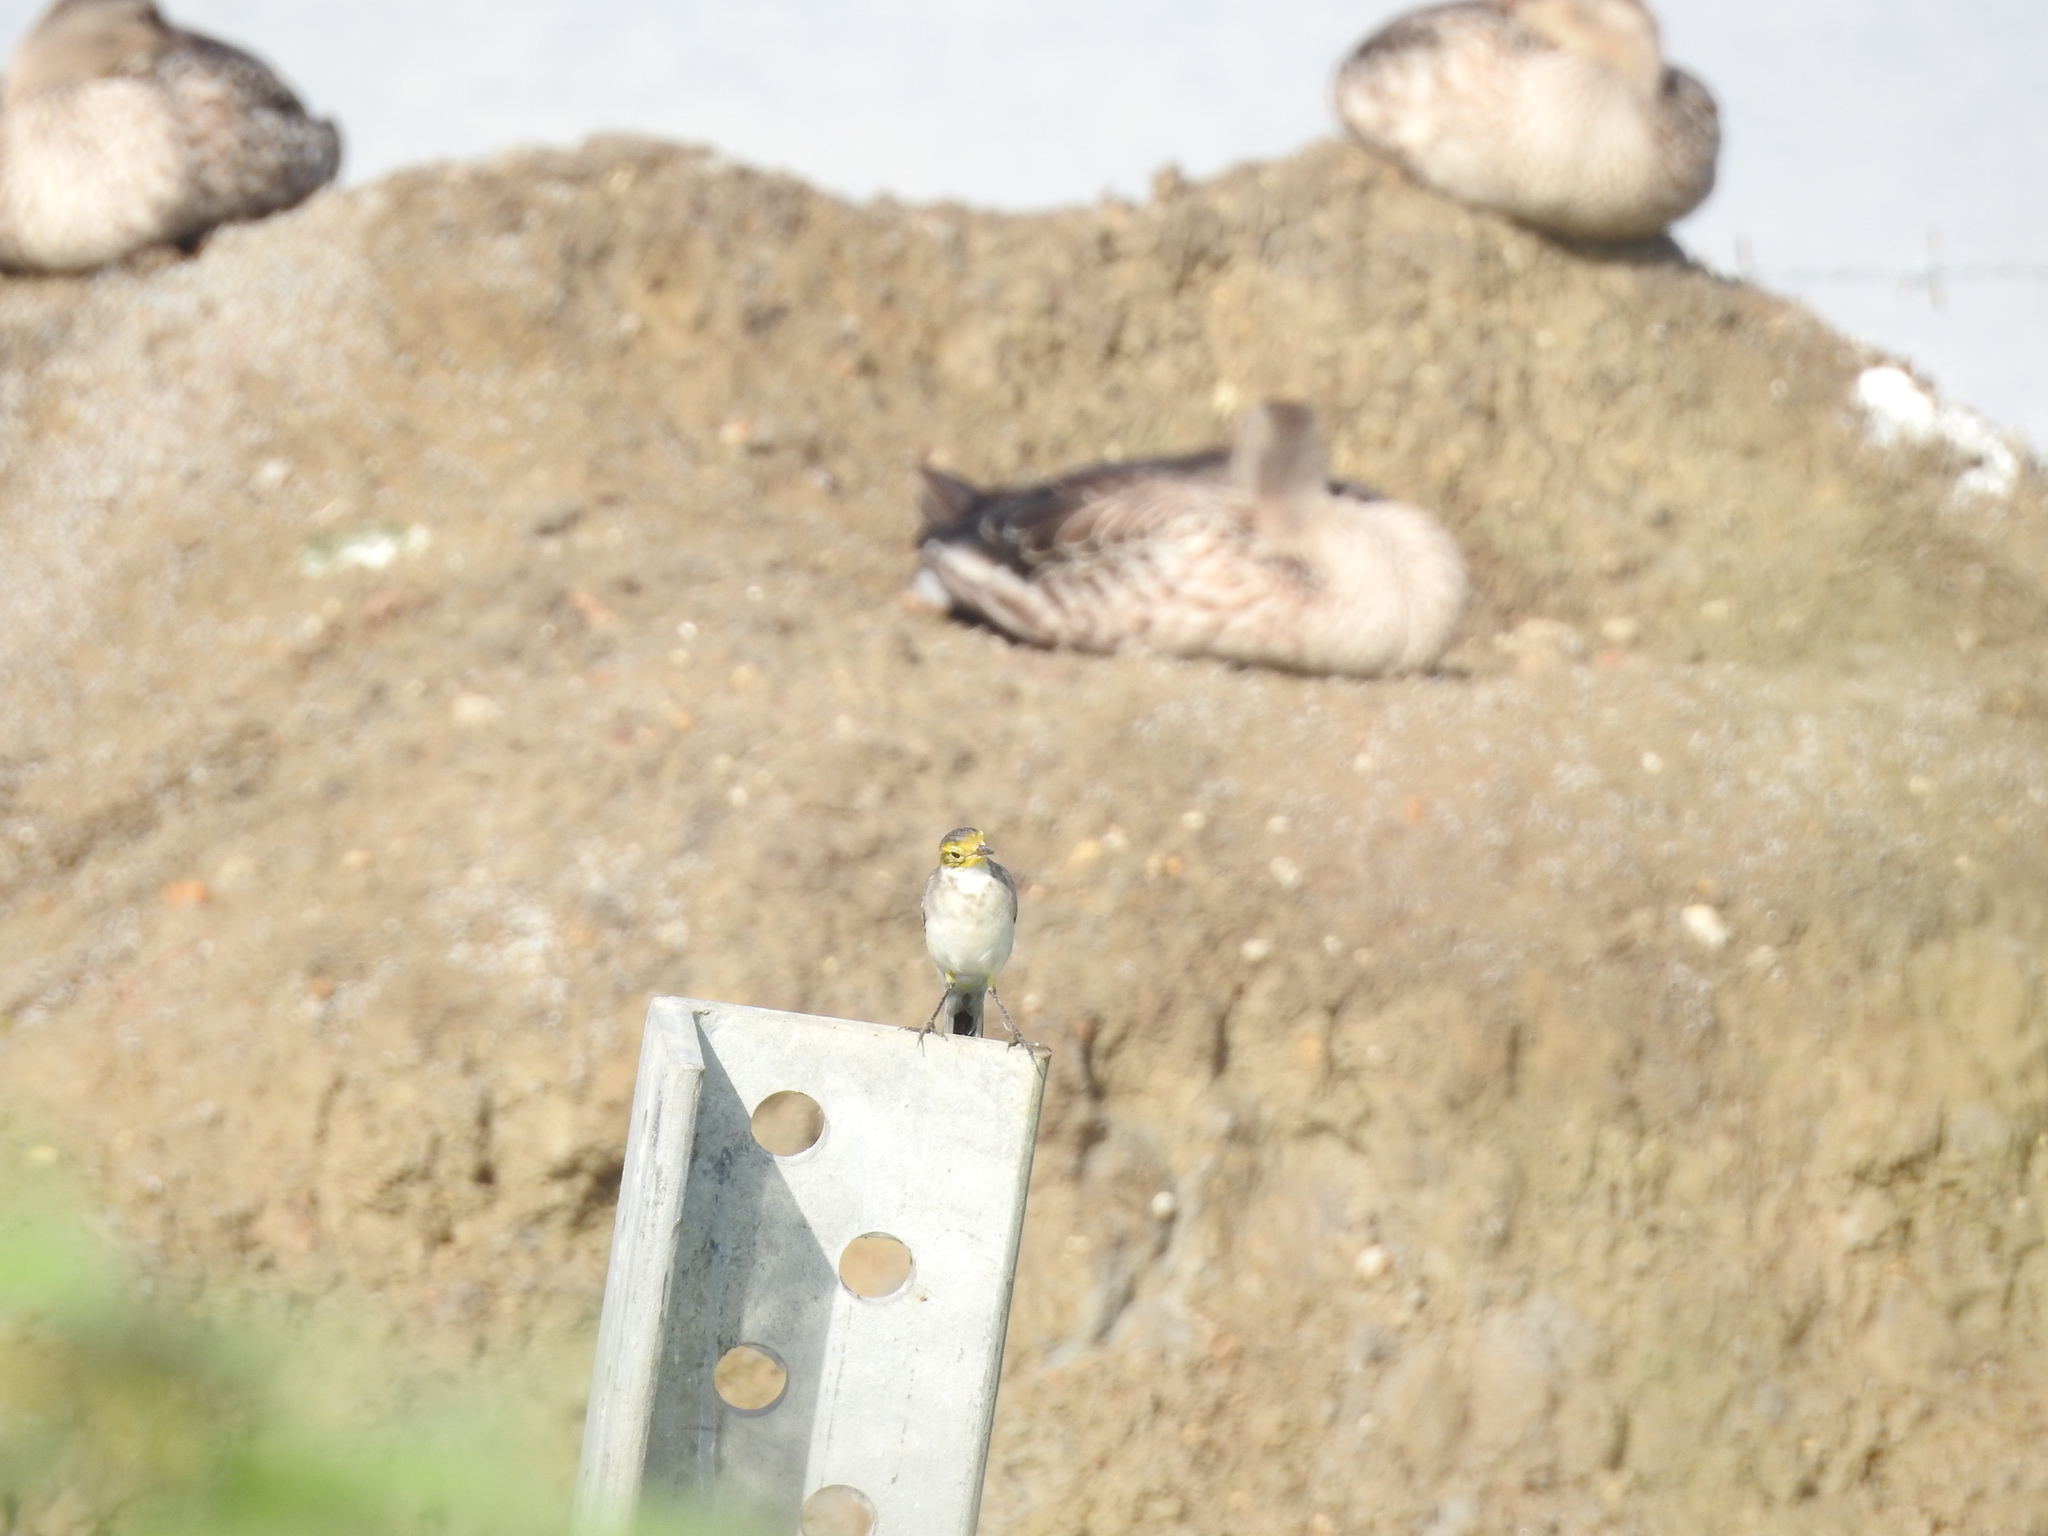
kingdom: Animalia
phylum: Chordata
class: Aves
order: Passeriformes
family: Motacillidae
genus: Motacilla
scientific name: Motacilla citreola
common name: Citrine wagtail
